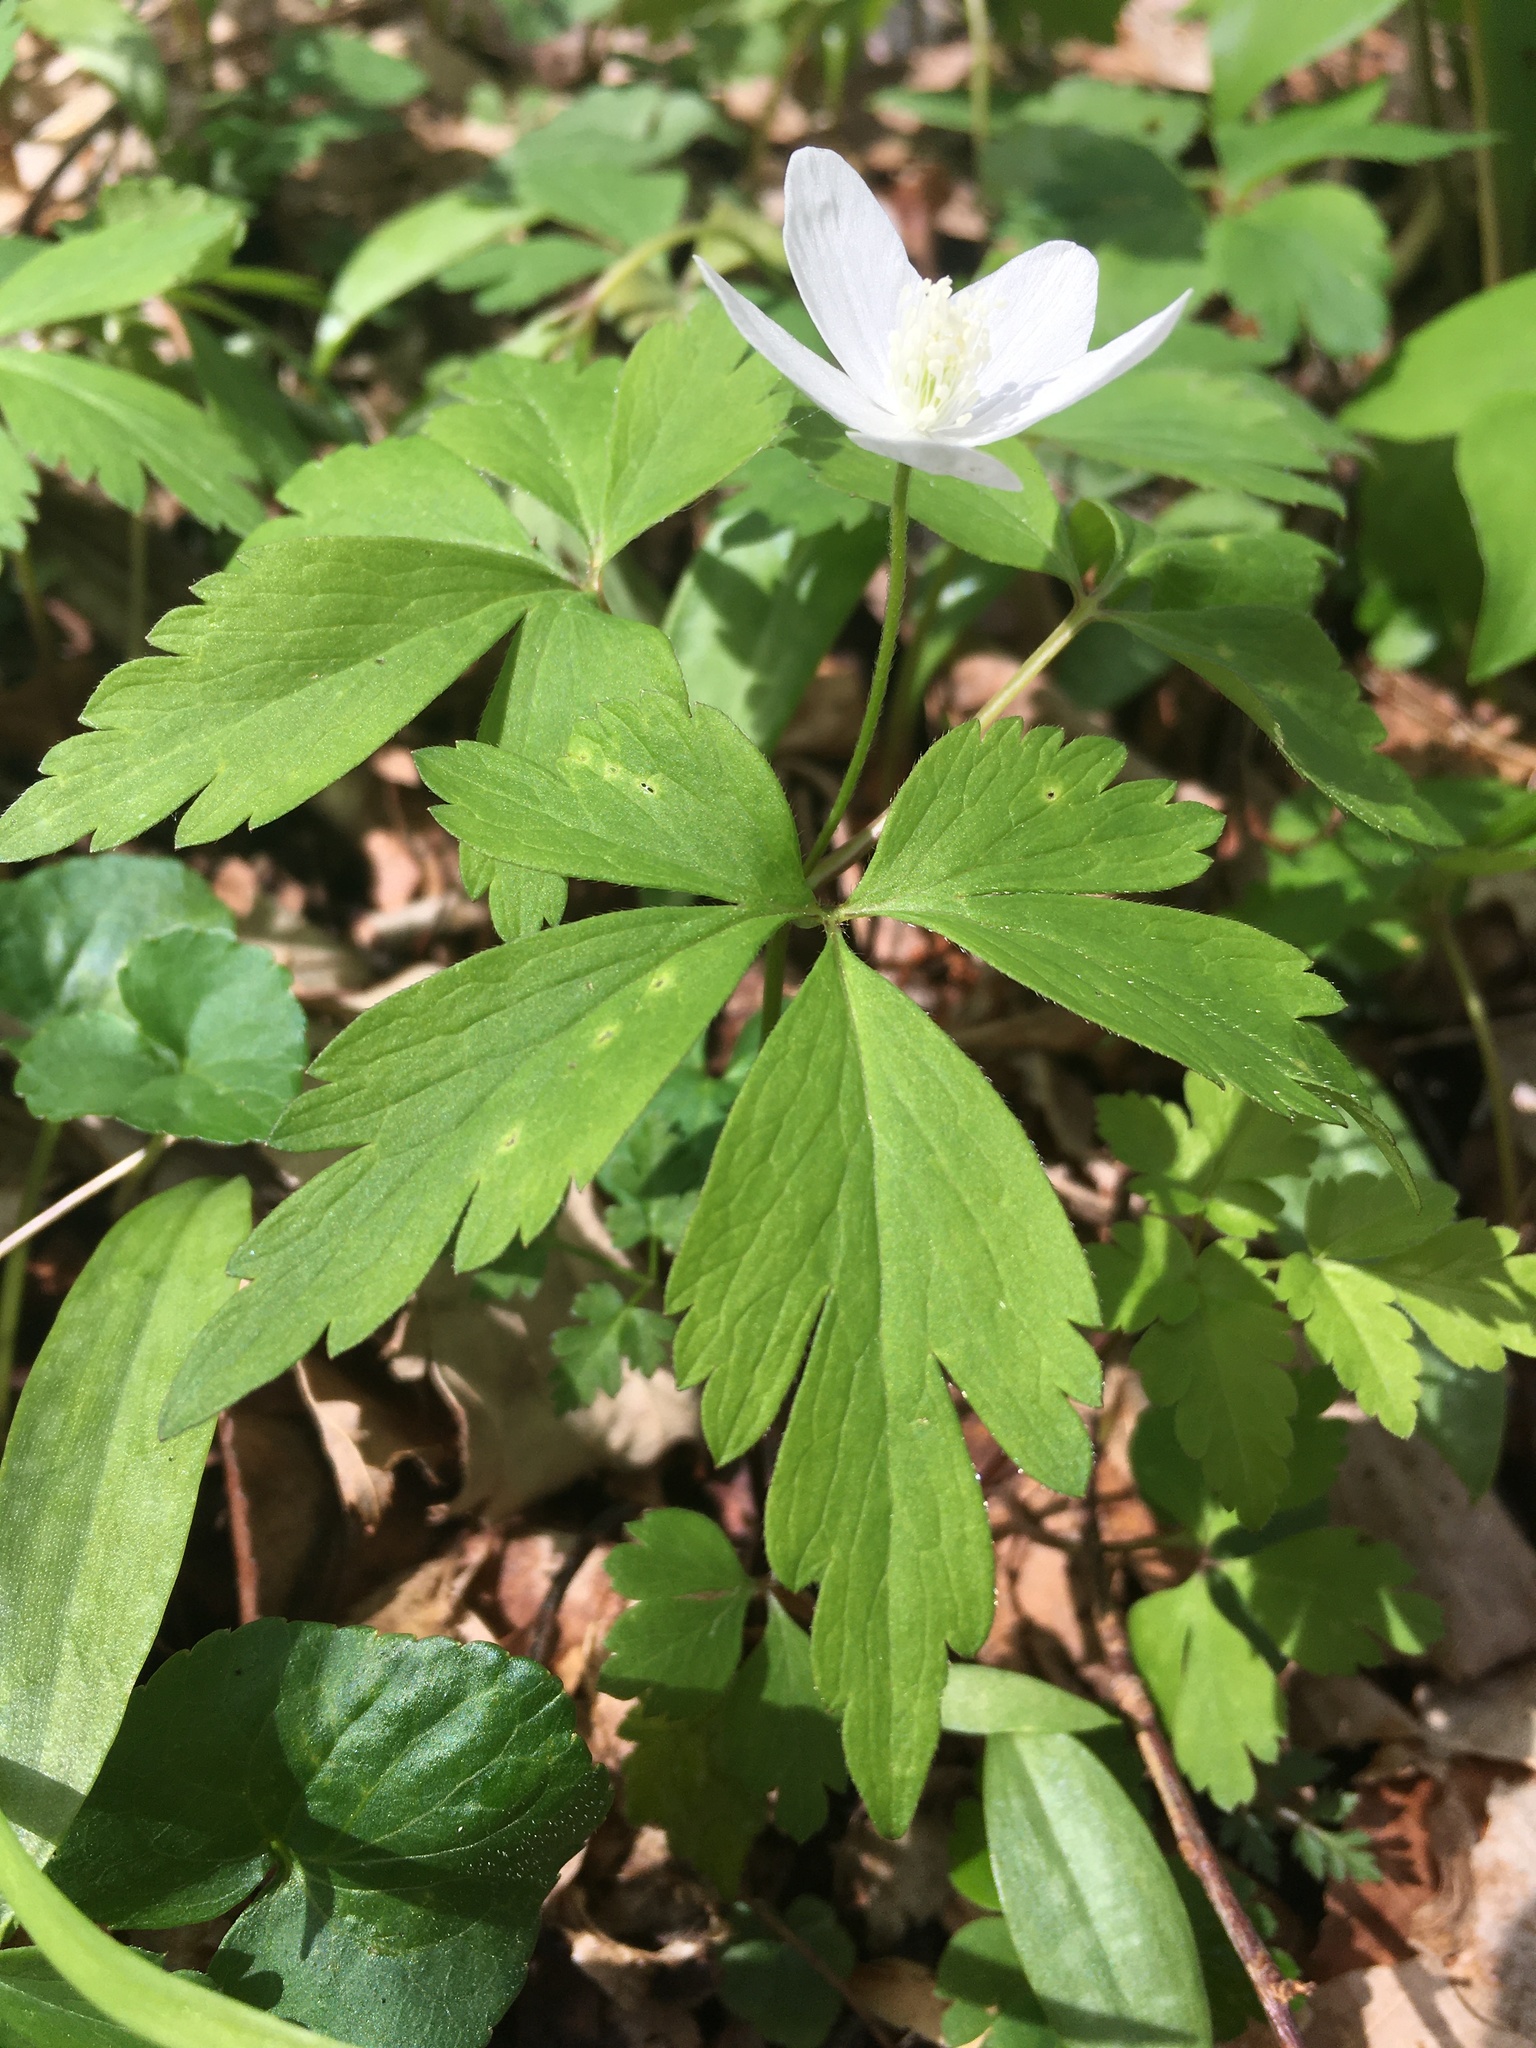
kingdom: Plantae
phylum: Tracheophyta
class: Magnoliopsida
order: Ranunculales
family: Ranunculaceae
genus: Anemone
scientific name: Anemone quinquefolia
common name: Wood anemone
